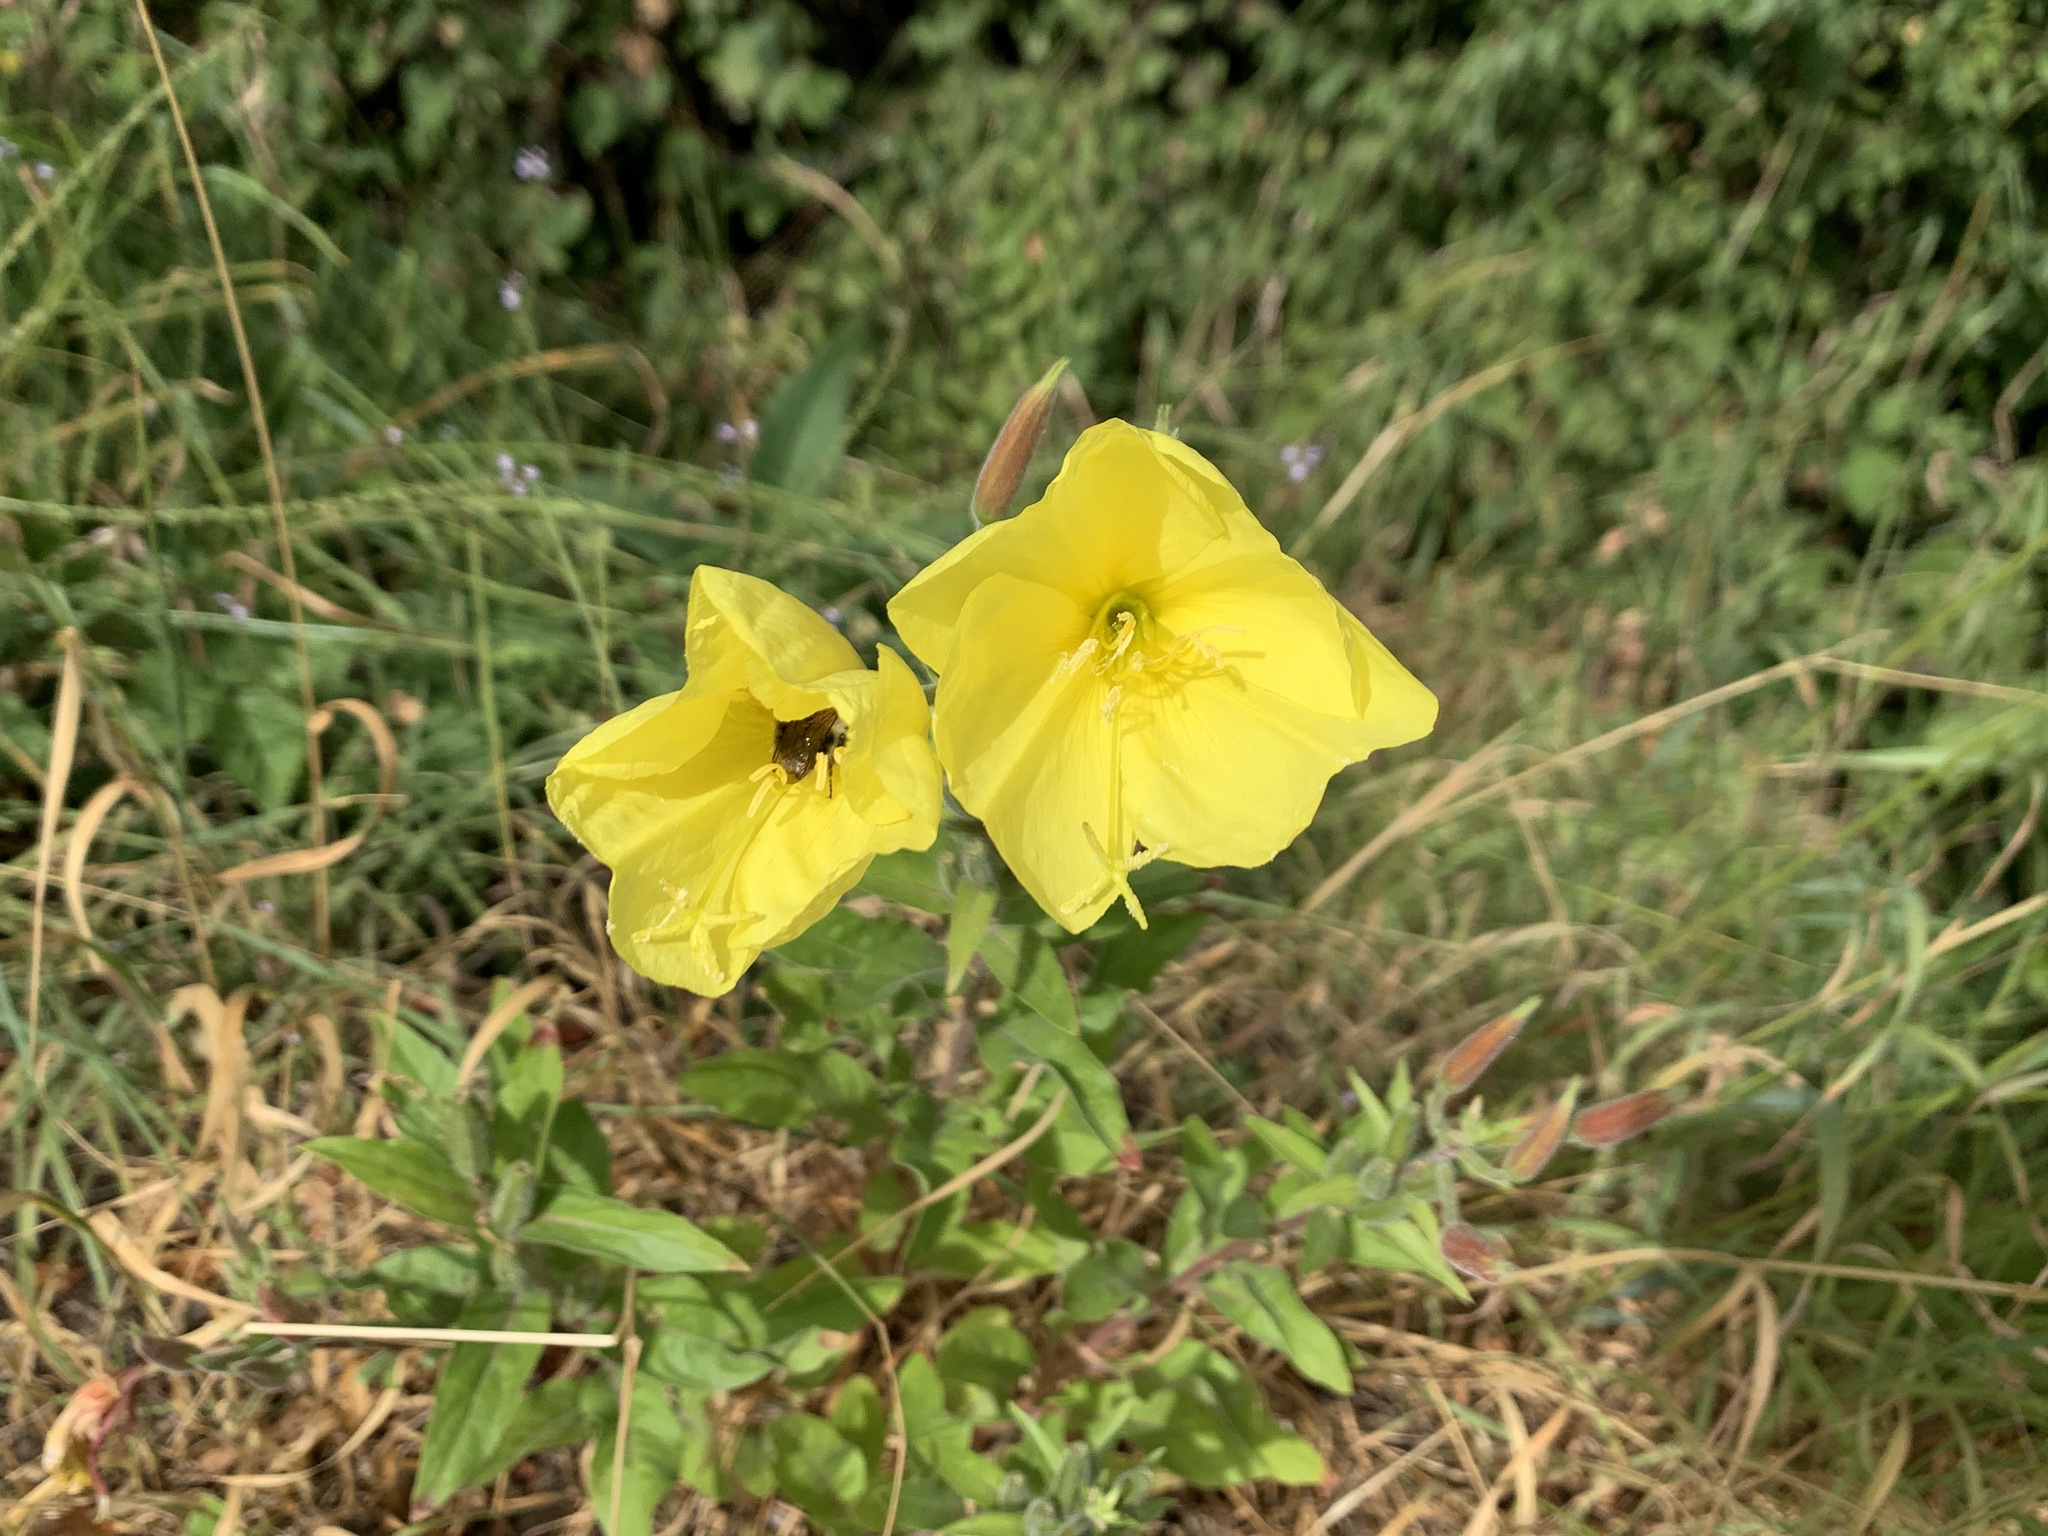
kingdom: Plantae
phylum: Tracheophyta
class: Magnoliopsida
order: Myrtales
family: Onagraceae
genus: Oenothera
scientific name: Oenothera glazioviana
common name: Large-flowered evening-primrose
